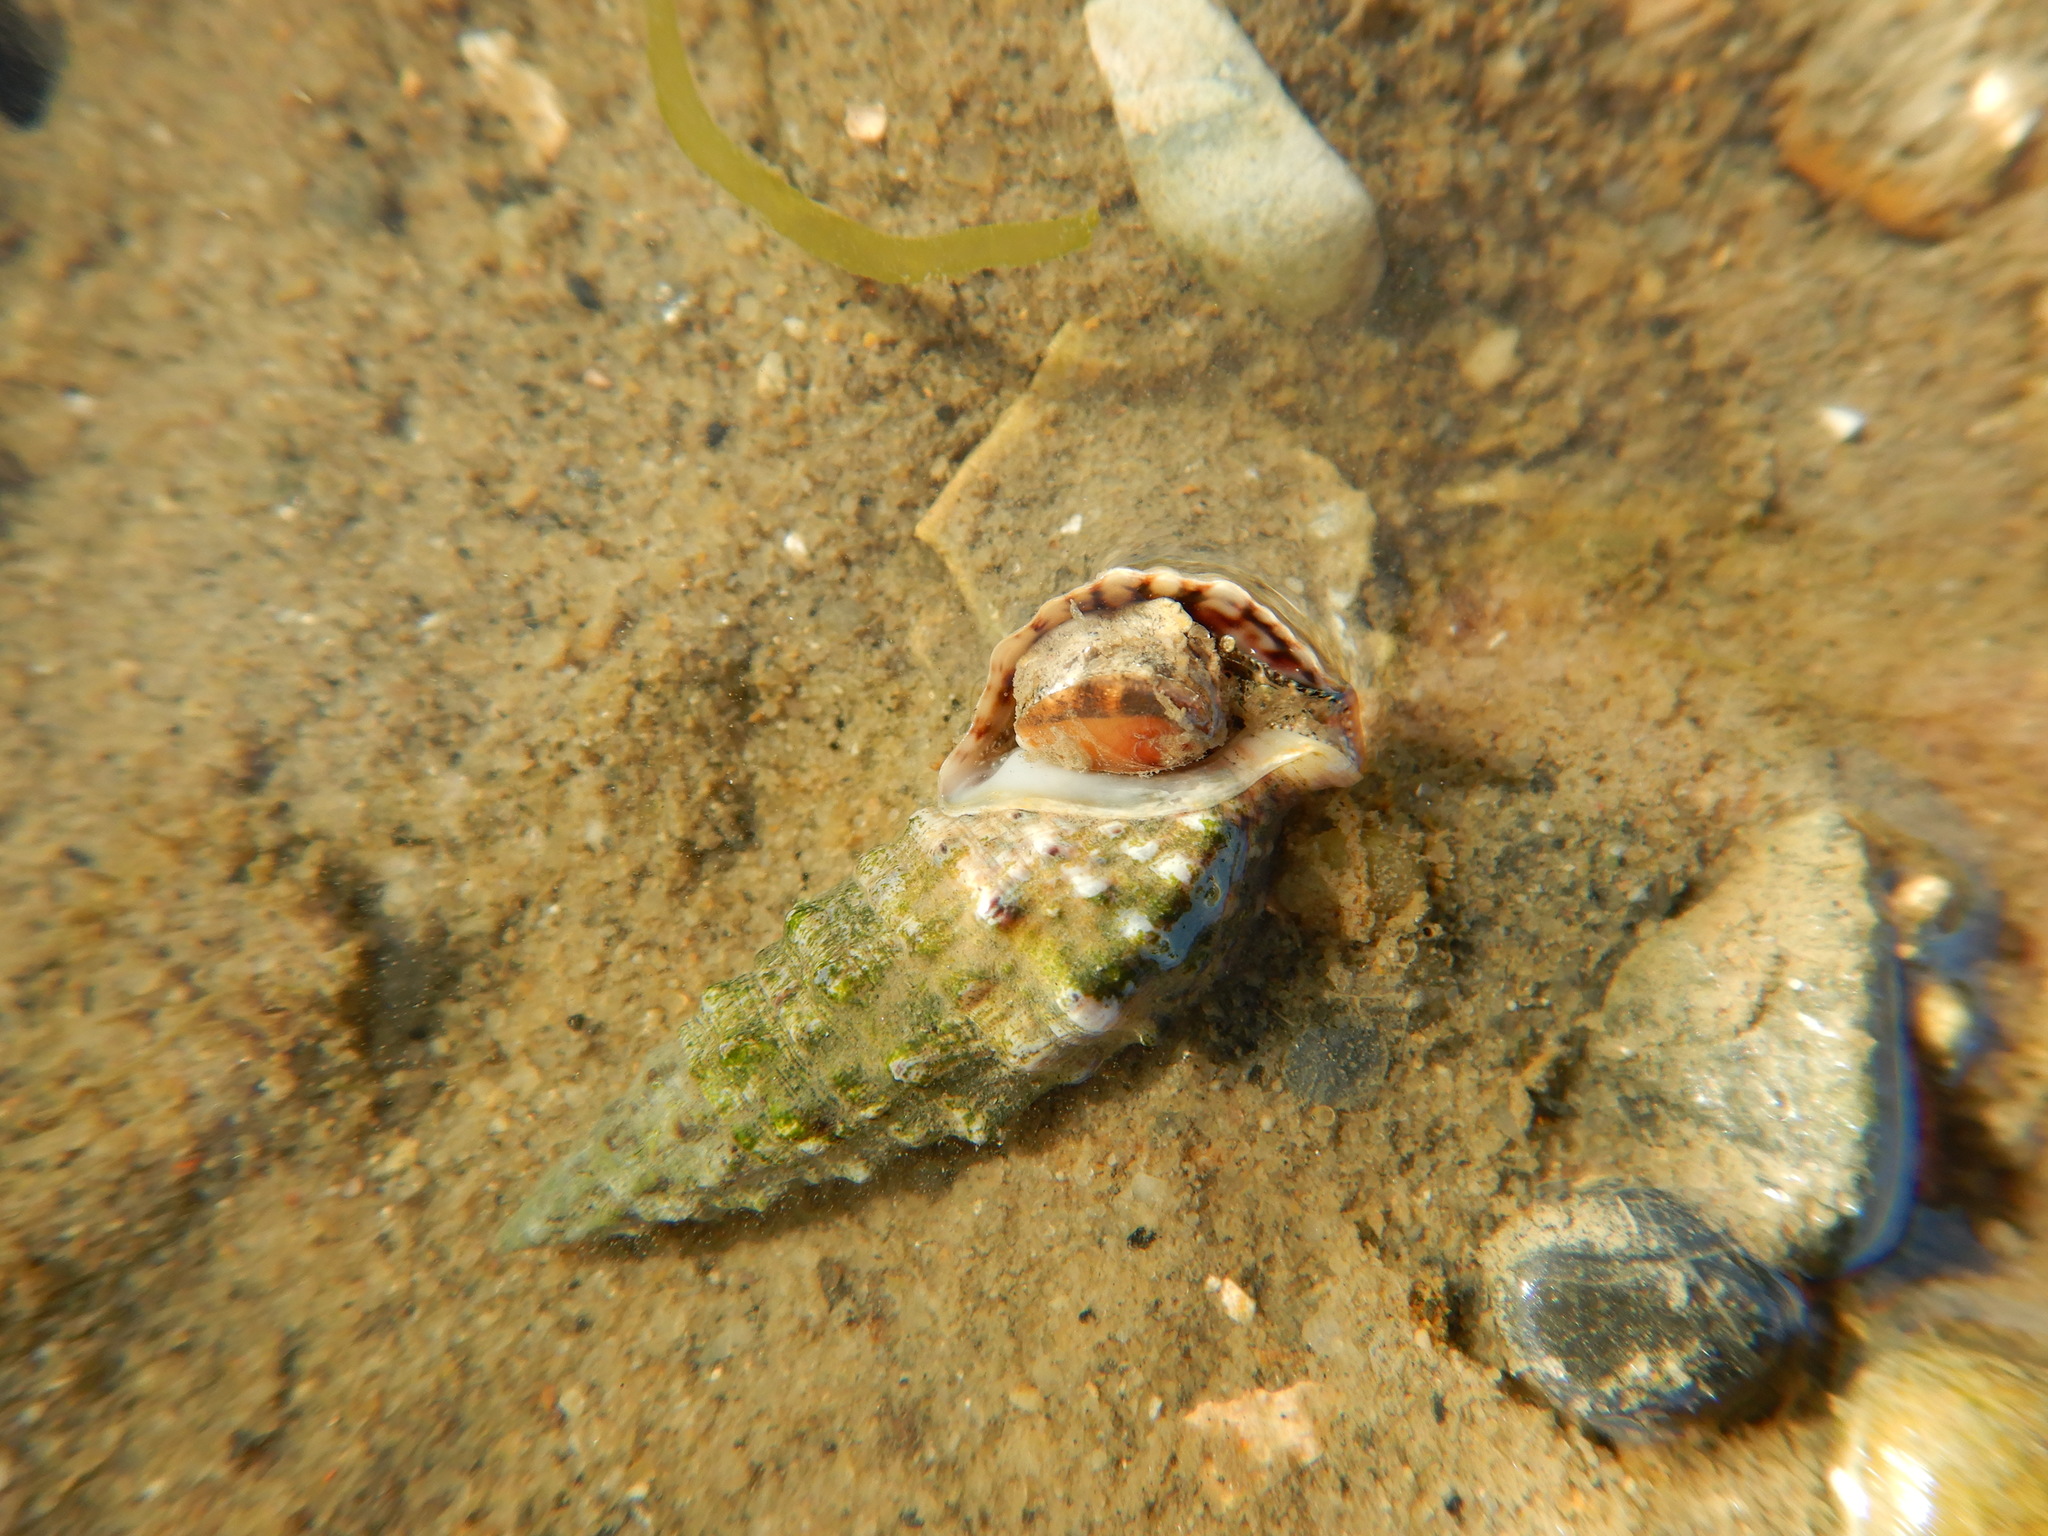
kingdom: Animalia
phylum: Mollusca
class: Gastropoda
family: Cerithiidae
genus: Cerithium
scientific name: Cerithium vulgatum
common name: European cerith
